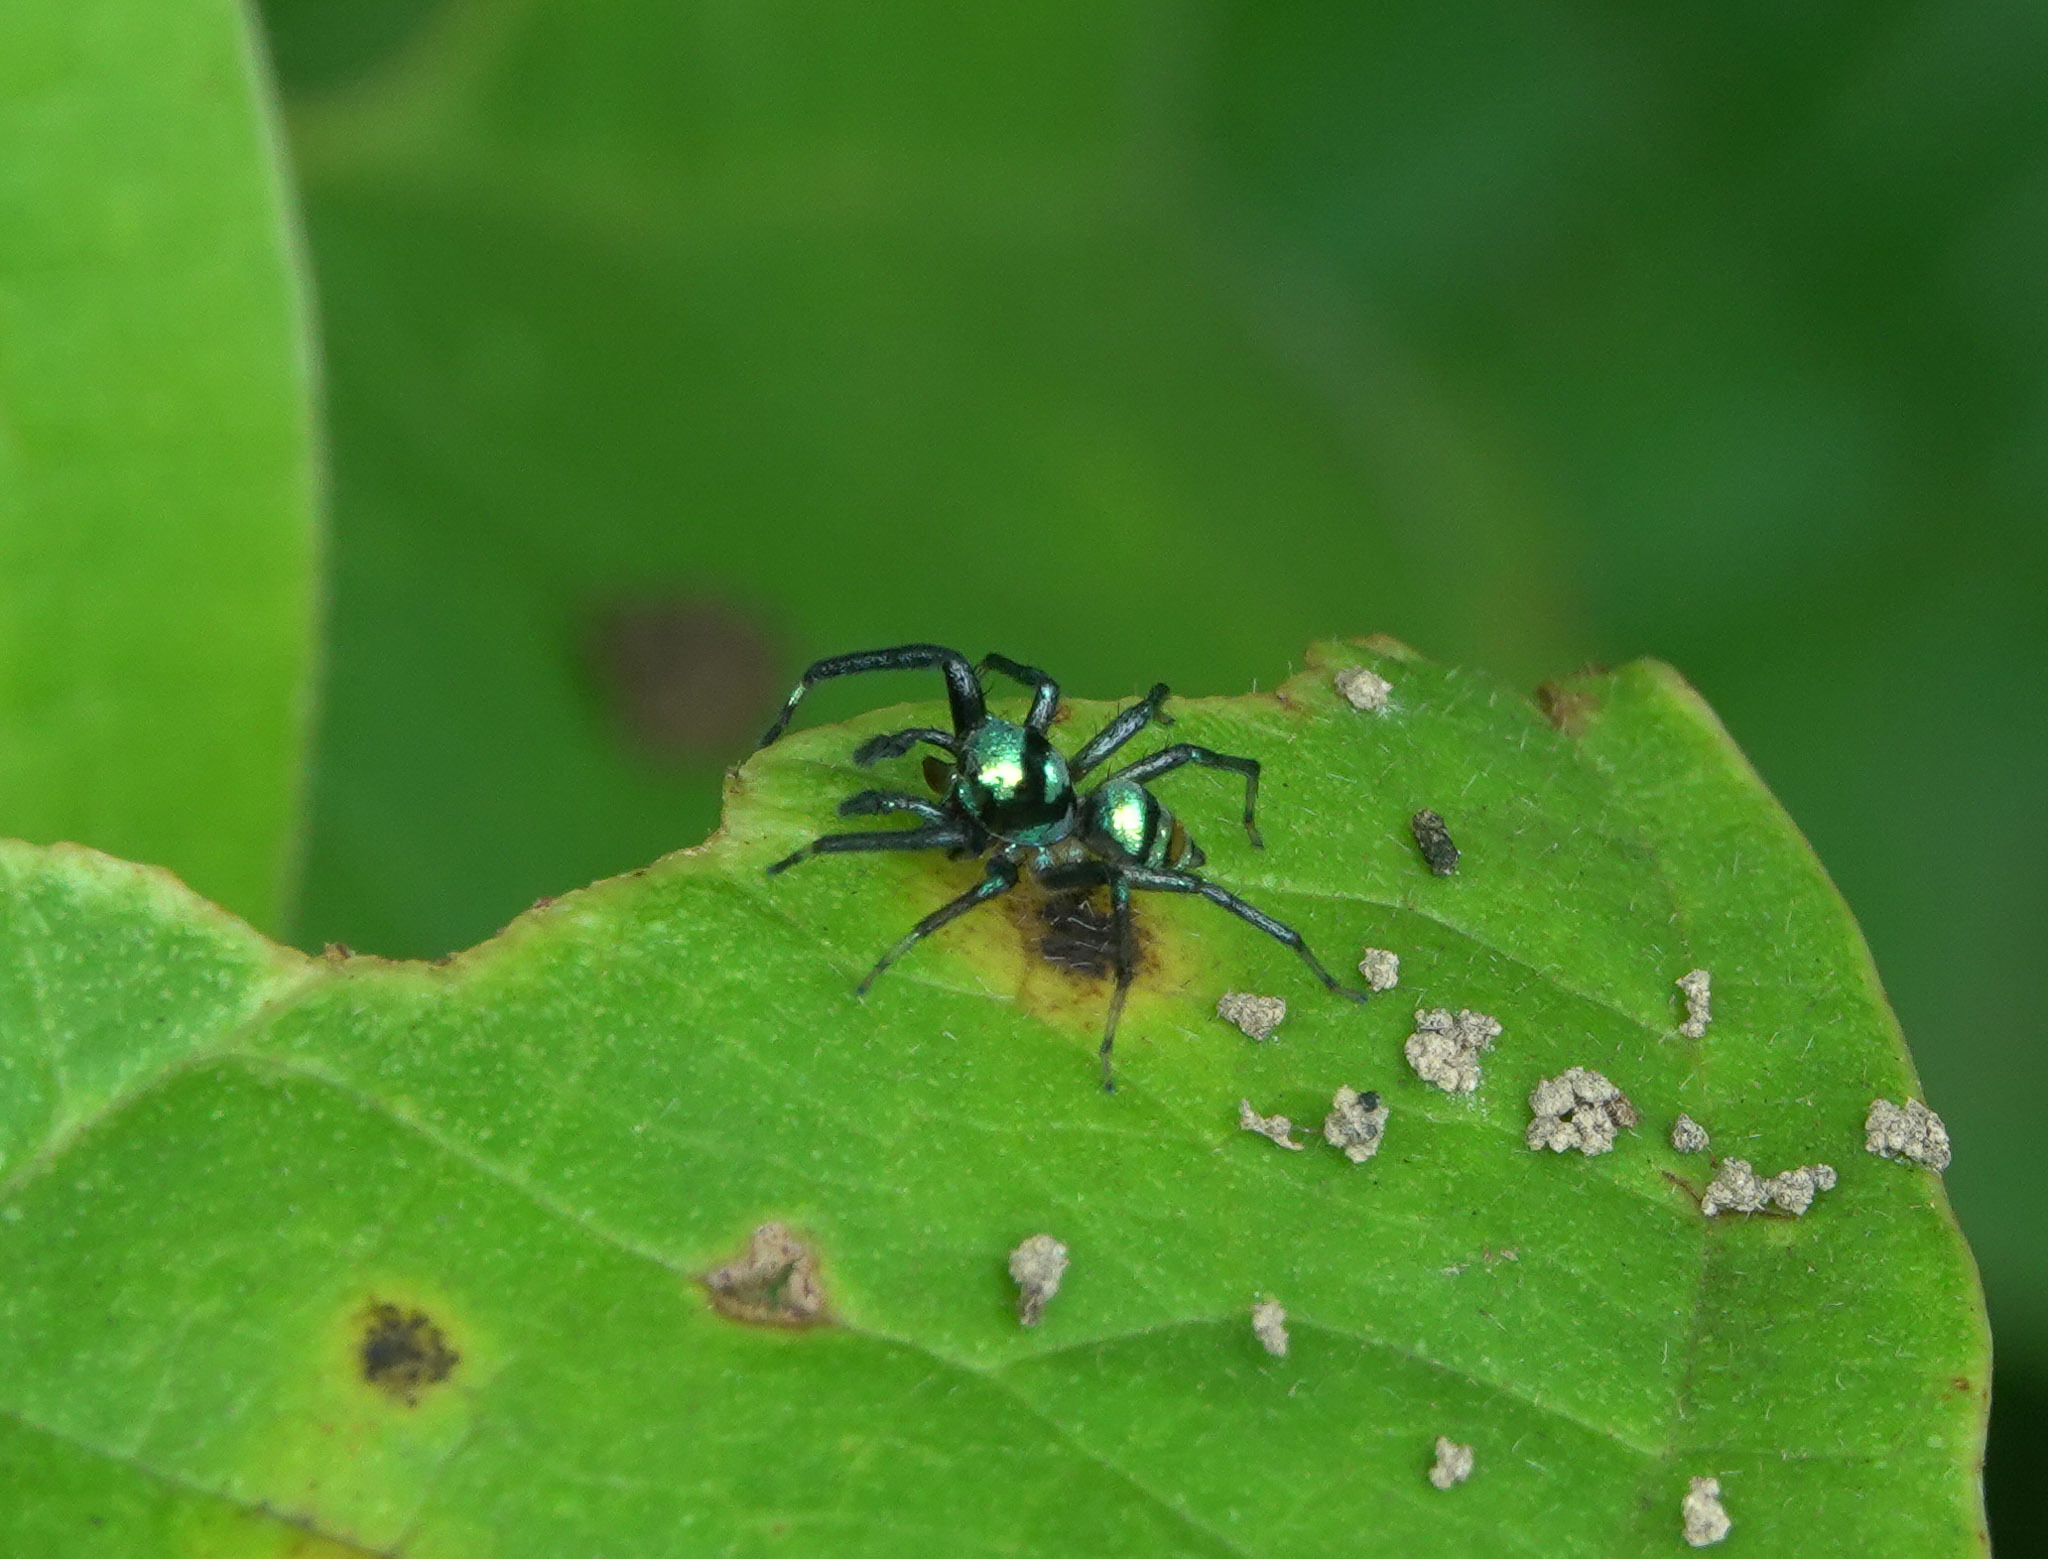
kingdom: Animalia
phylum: Arthropoda
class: Arachnida
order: Araneae
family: Salticidae
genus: Phintella
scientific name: Phintella vittata
